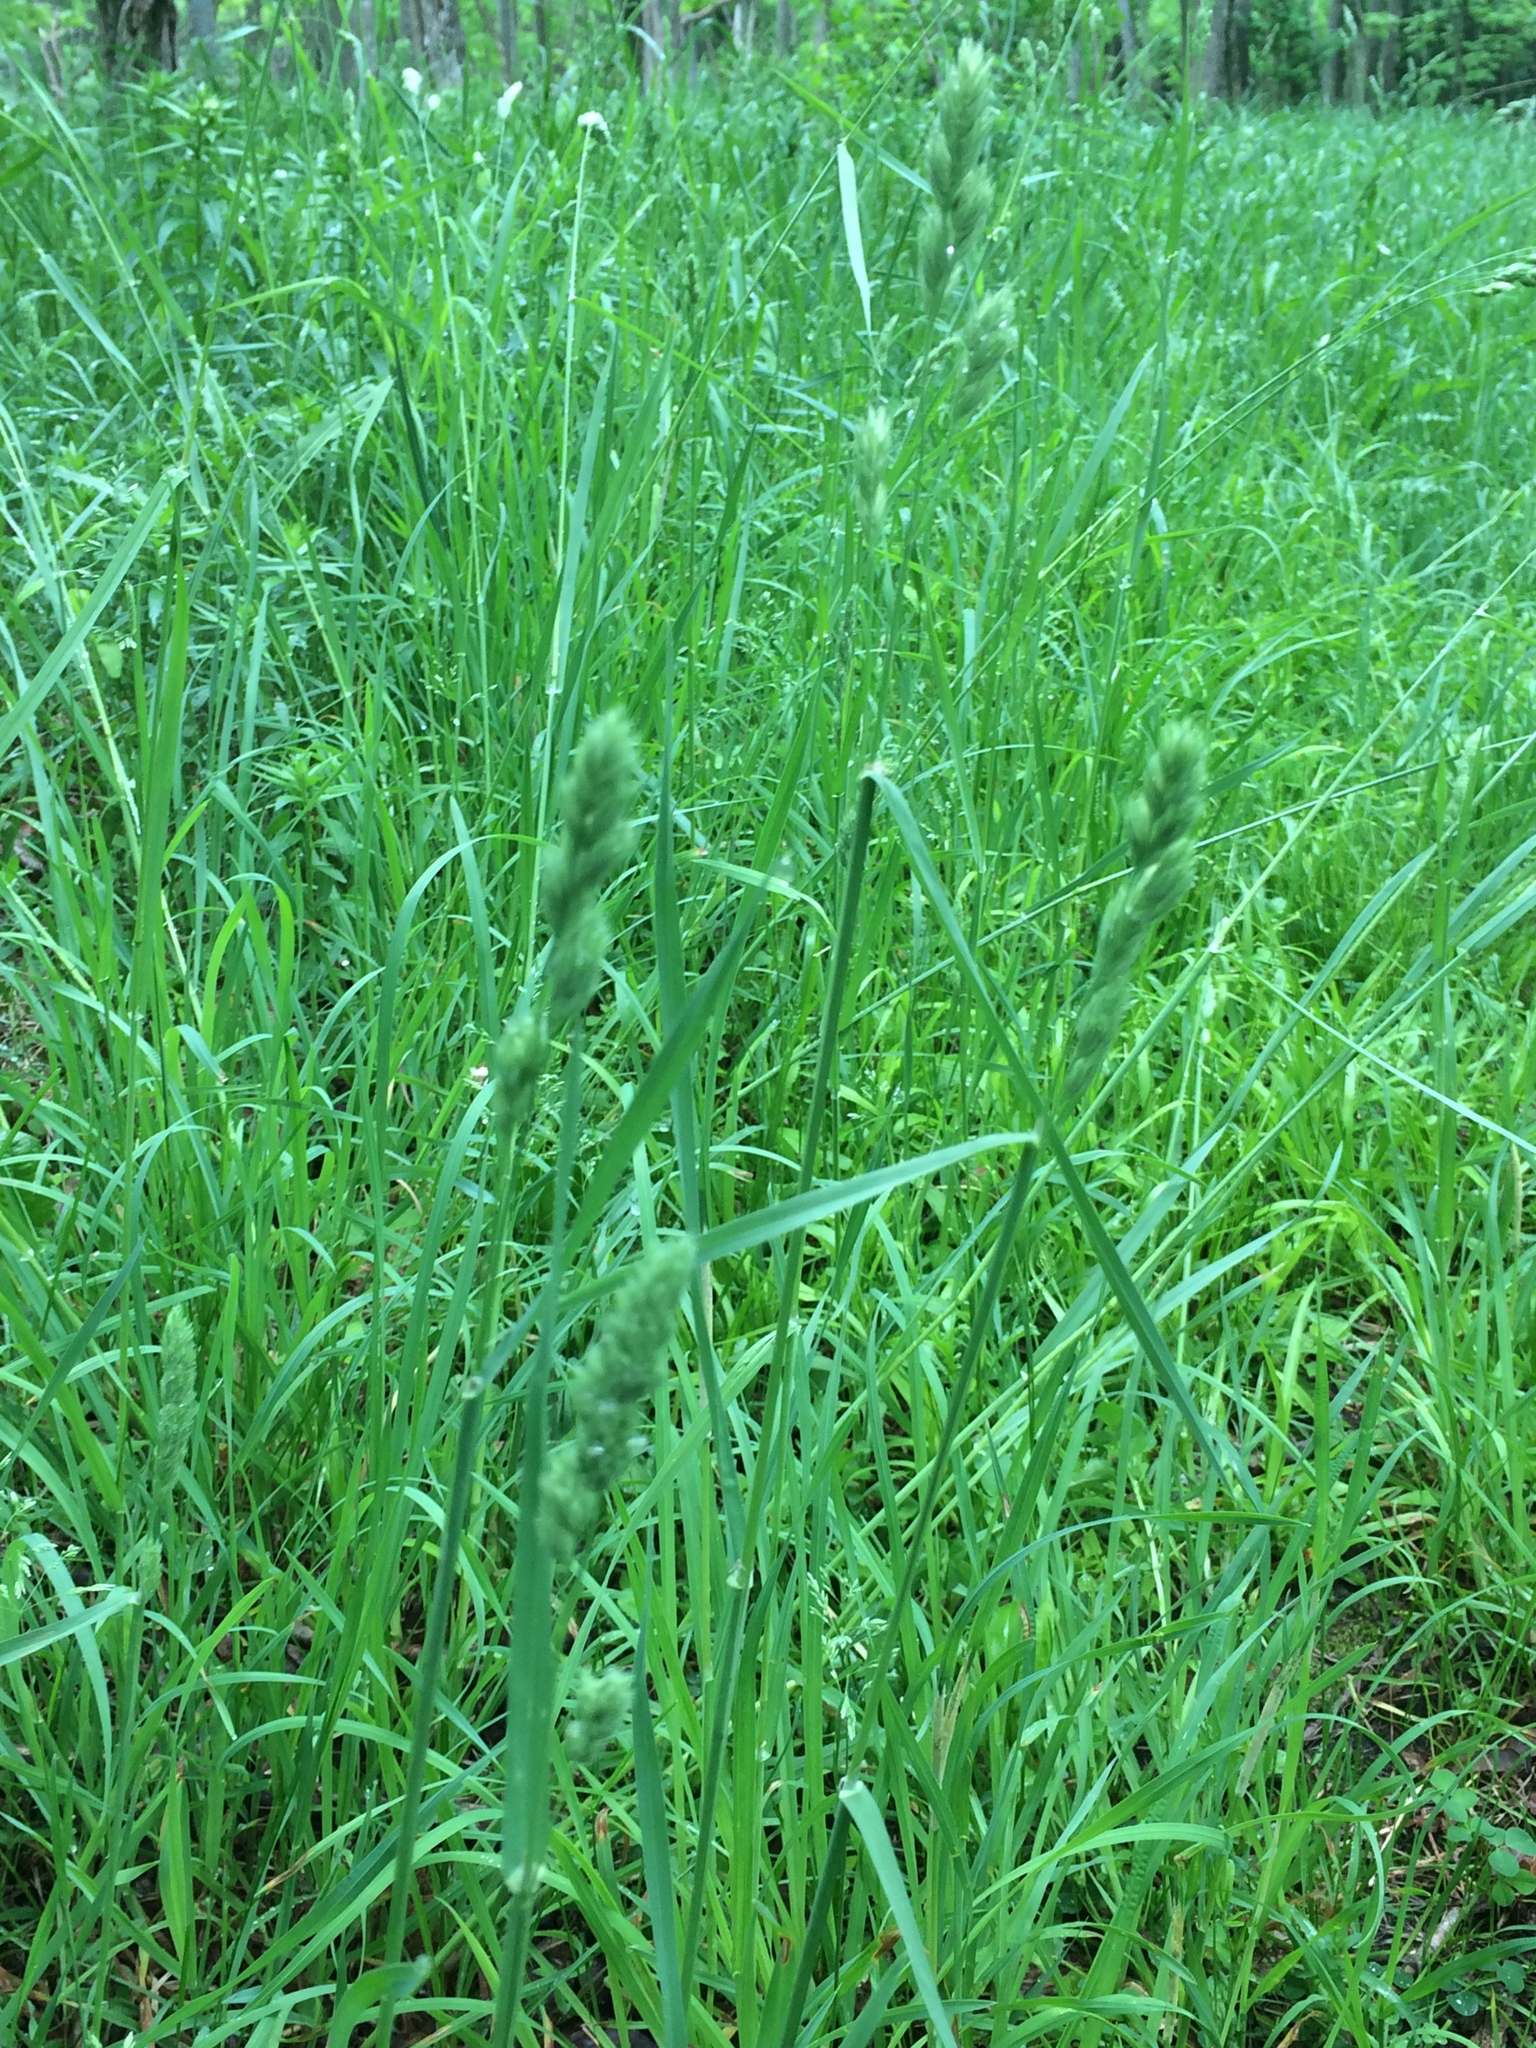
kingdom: Plantae
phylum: Tracheophyta
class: Liliopsida
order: Poales
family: Poaceae
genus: Dactylis
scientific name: Dactylis glomerata
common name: Orchardgrass
